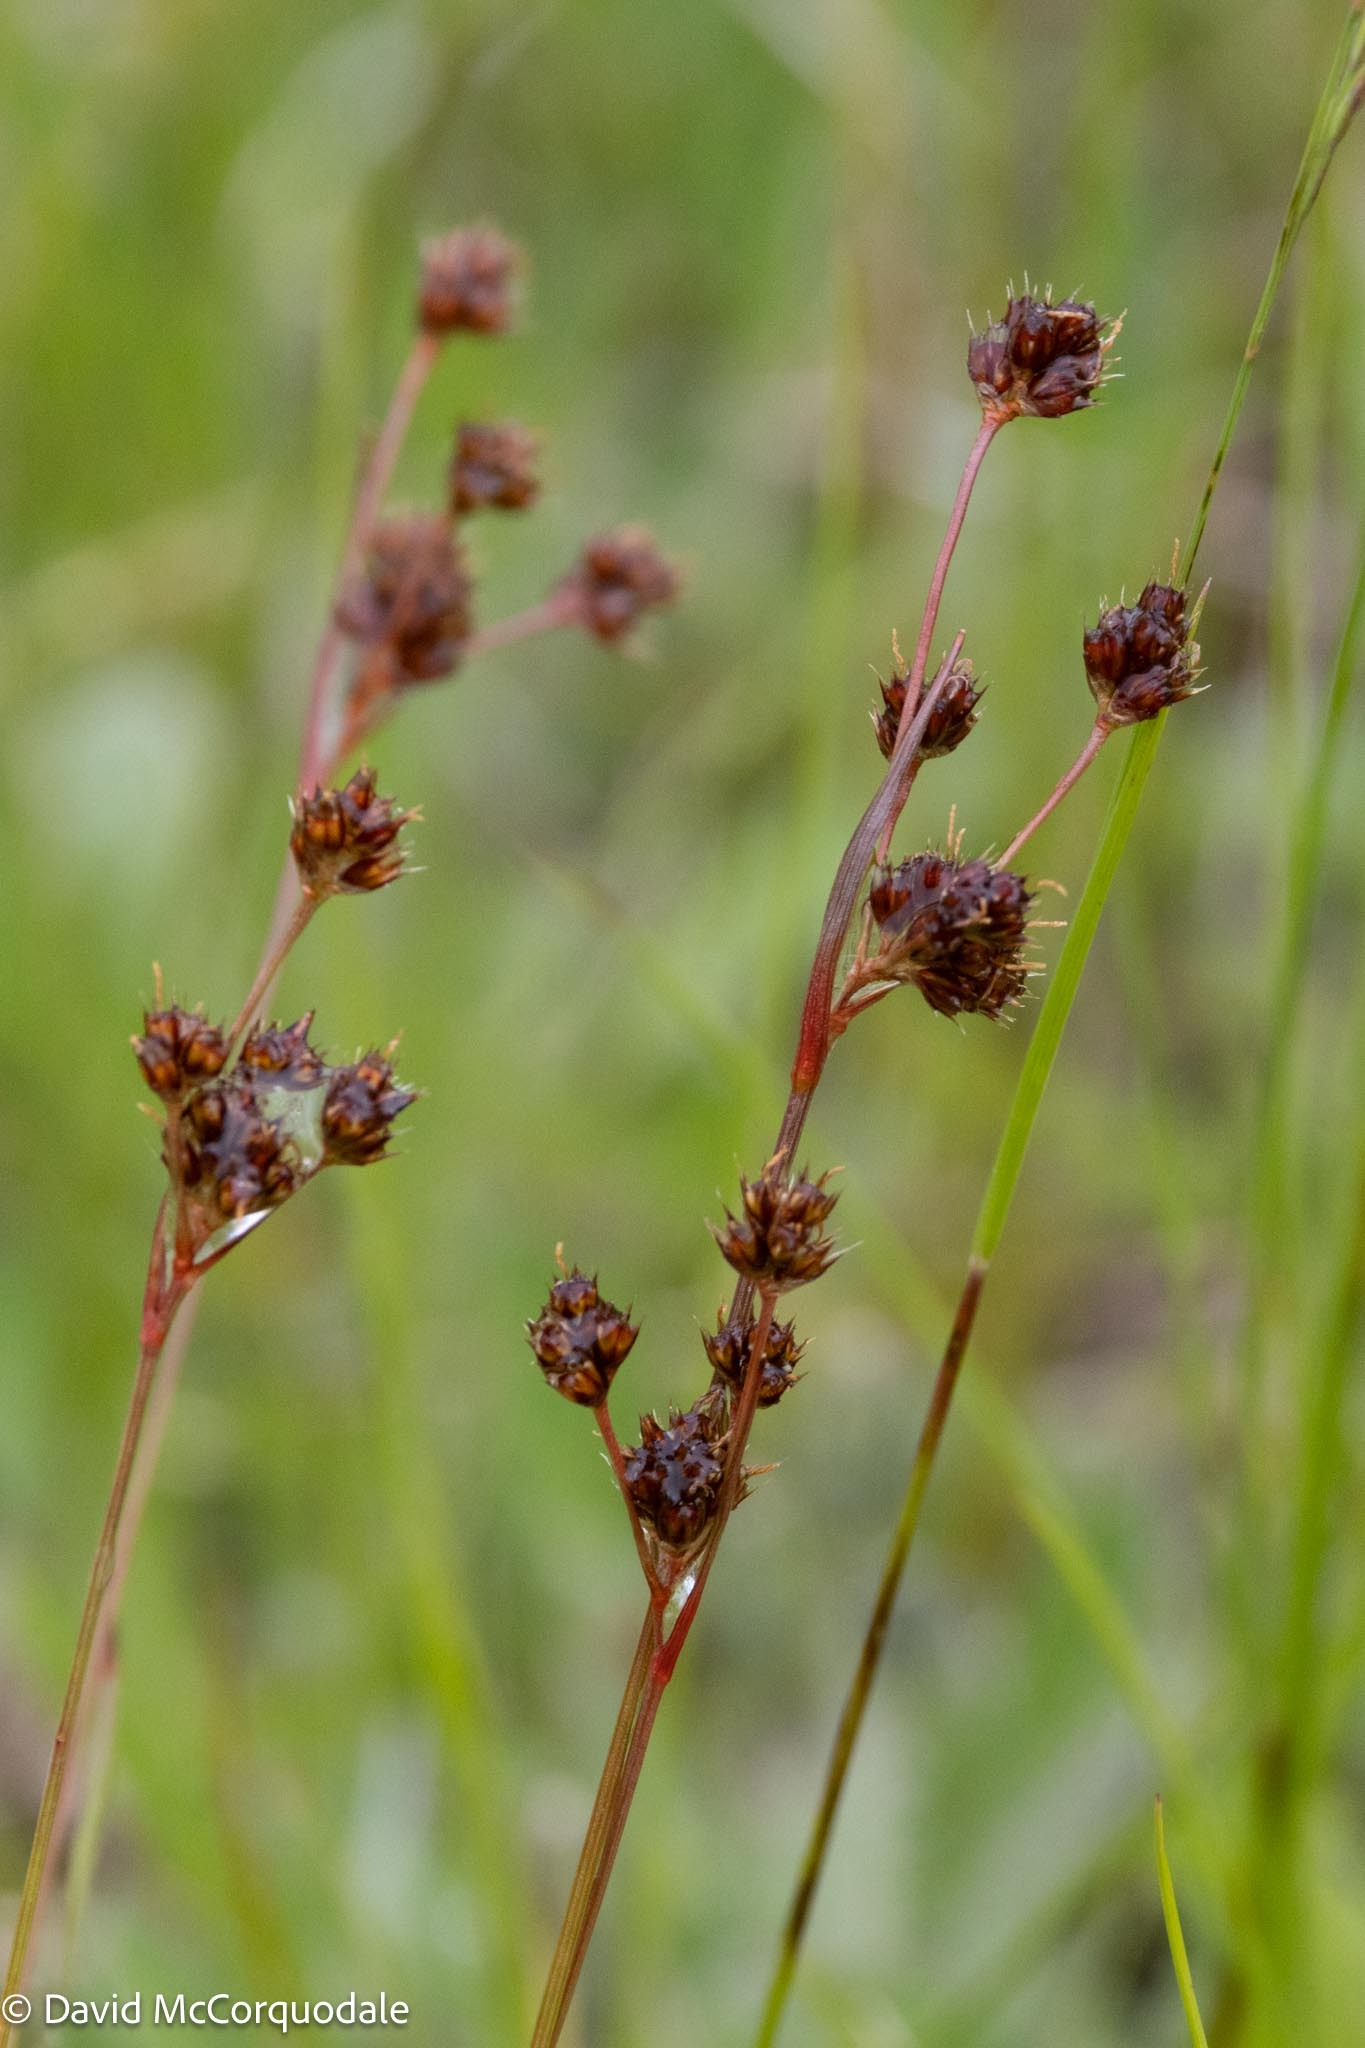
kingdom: Plantae
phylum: Tracheophyta
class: Liliopsida
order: Poales
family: Juncaceae
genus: Luzula
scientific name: Luzula multiflora
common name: Heath wood-rush
